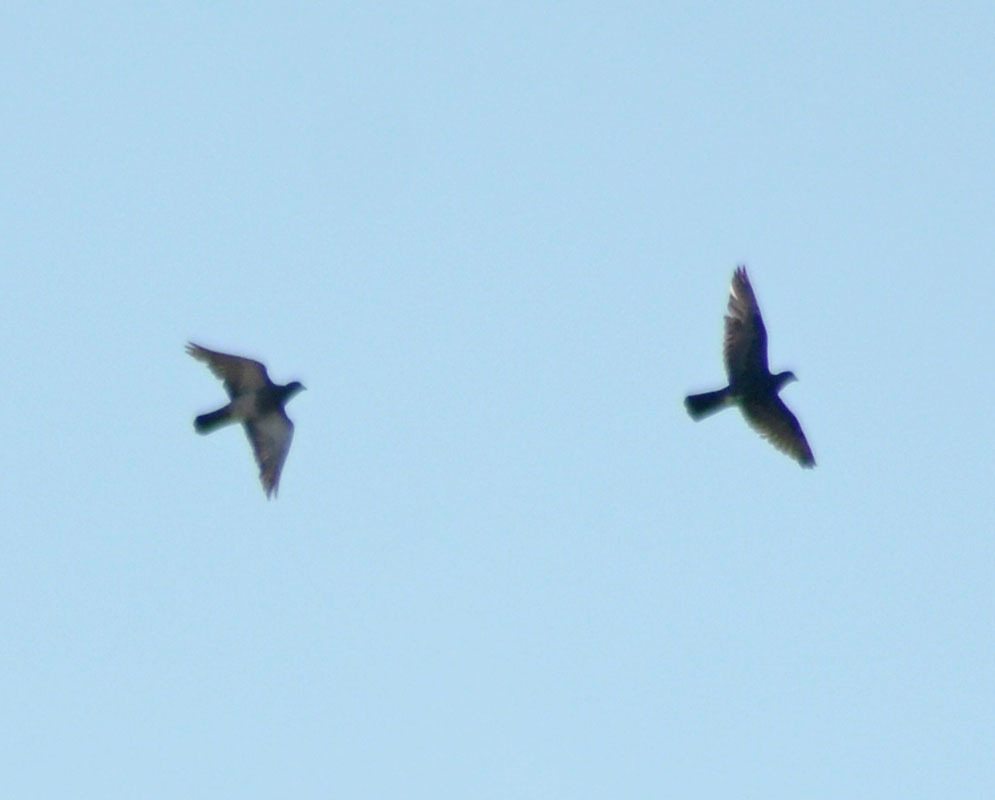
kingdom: Animalia
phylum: Chordata
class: Aves
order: Columbiformes
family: Columbidae
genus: Columba
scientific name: Columba livia
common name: Rock pigeon
